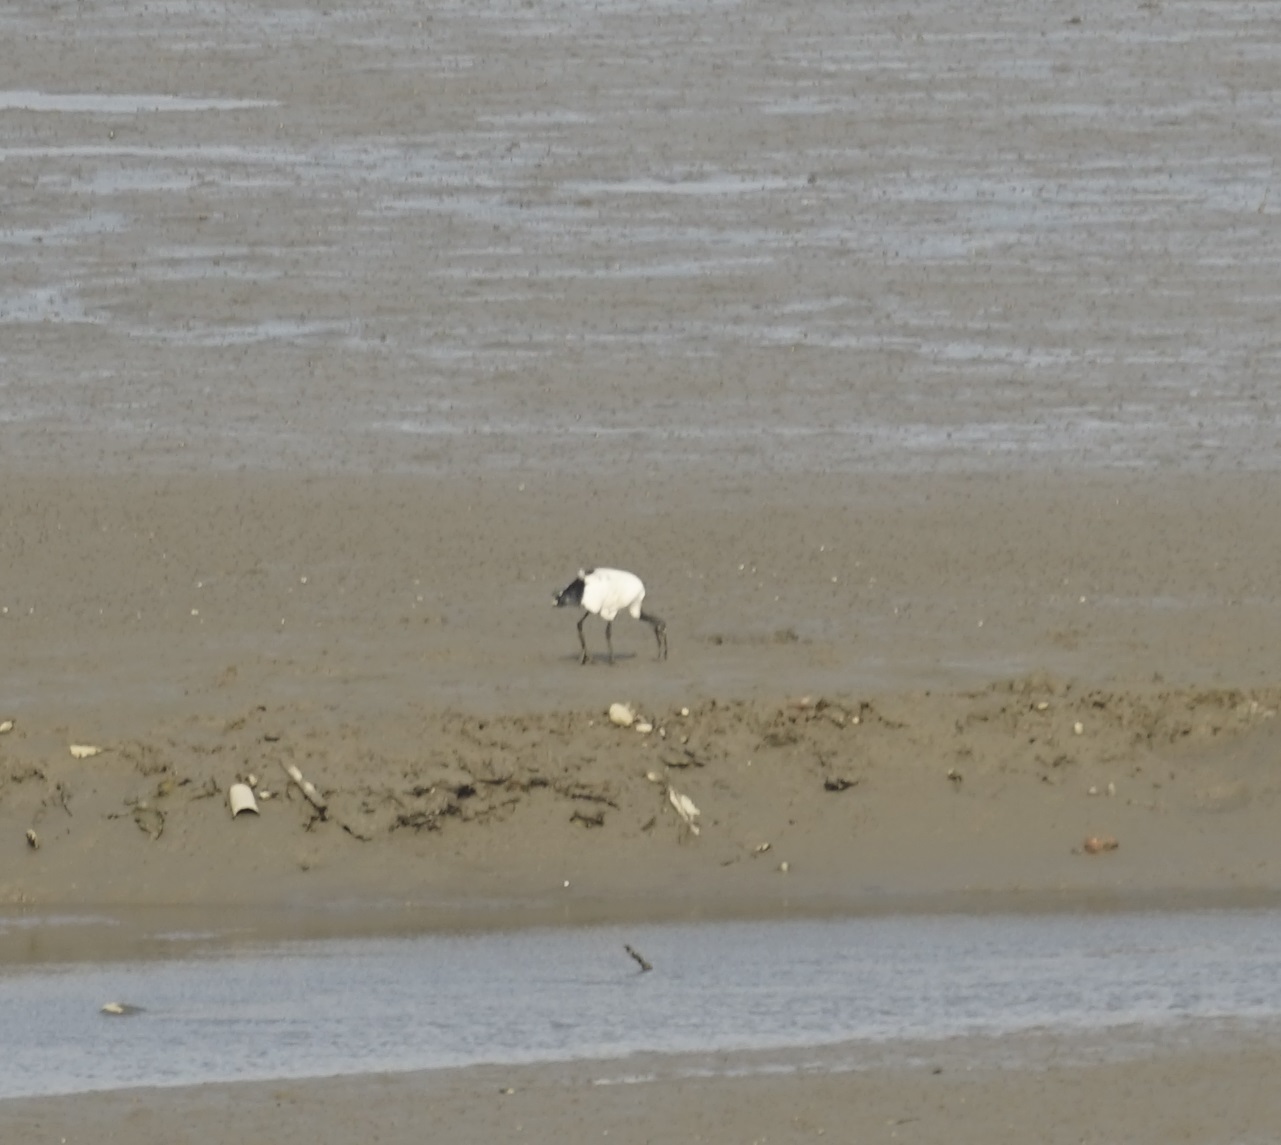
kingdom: Animalia
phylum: Chordata
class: Aves
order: Pelecaniformes
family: Threskiornithidae
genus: Threskiornis
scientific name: Threskiornis aethiopicus
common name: Sacred ibis
